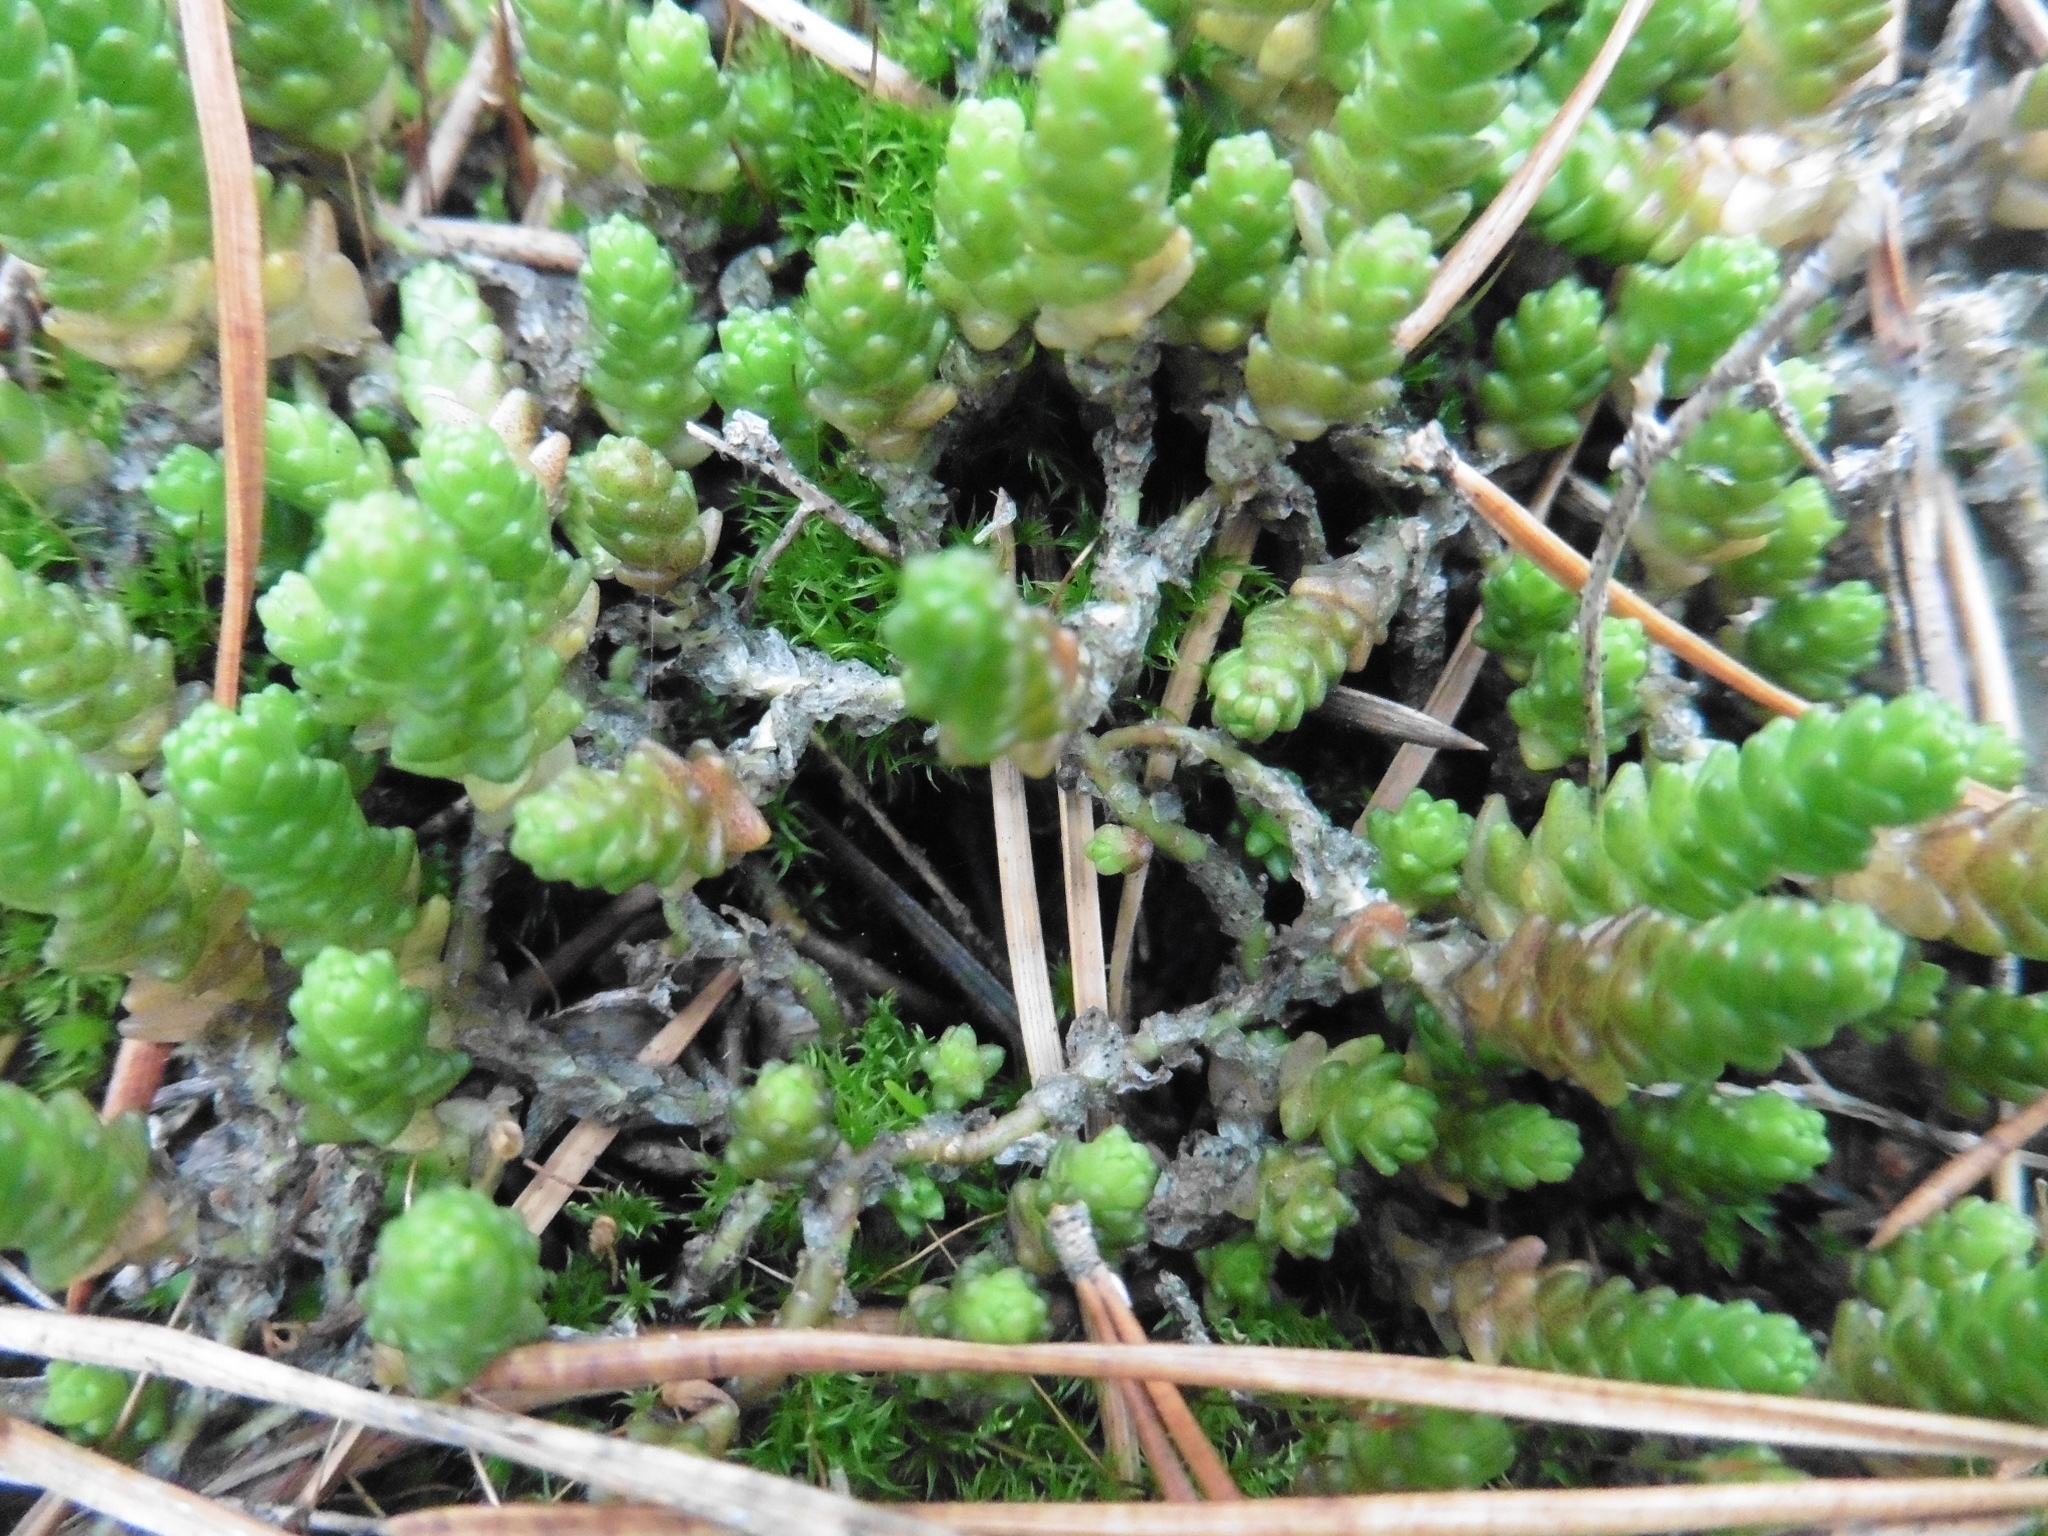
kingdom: Plantae
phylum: Tracheophyta
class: Magnoliopsida
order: Saxifragales
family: Crassulaceae
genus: Sedum
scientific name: Sedum acre
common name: Biting stonecrop
